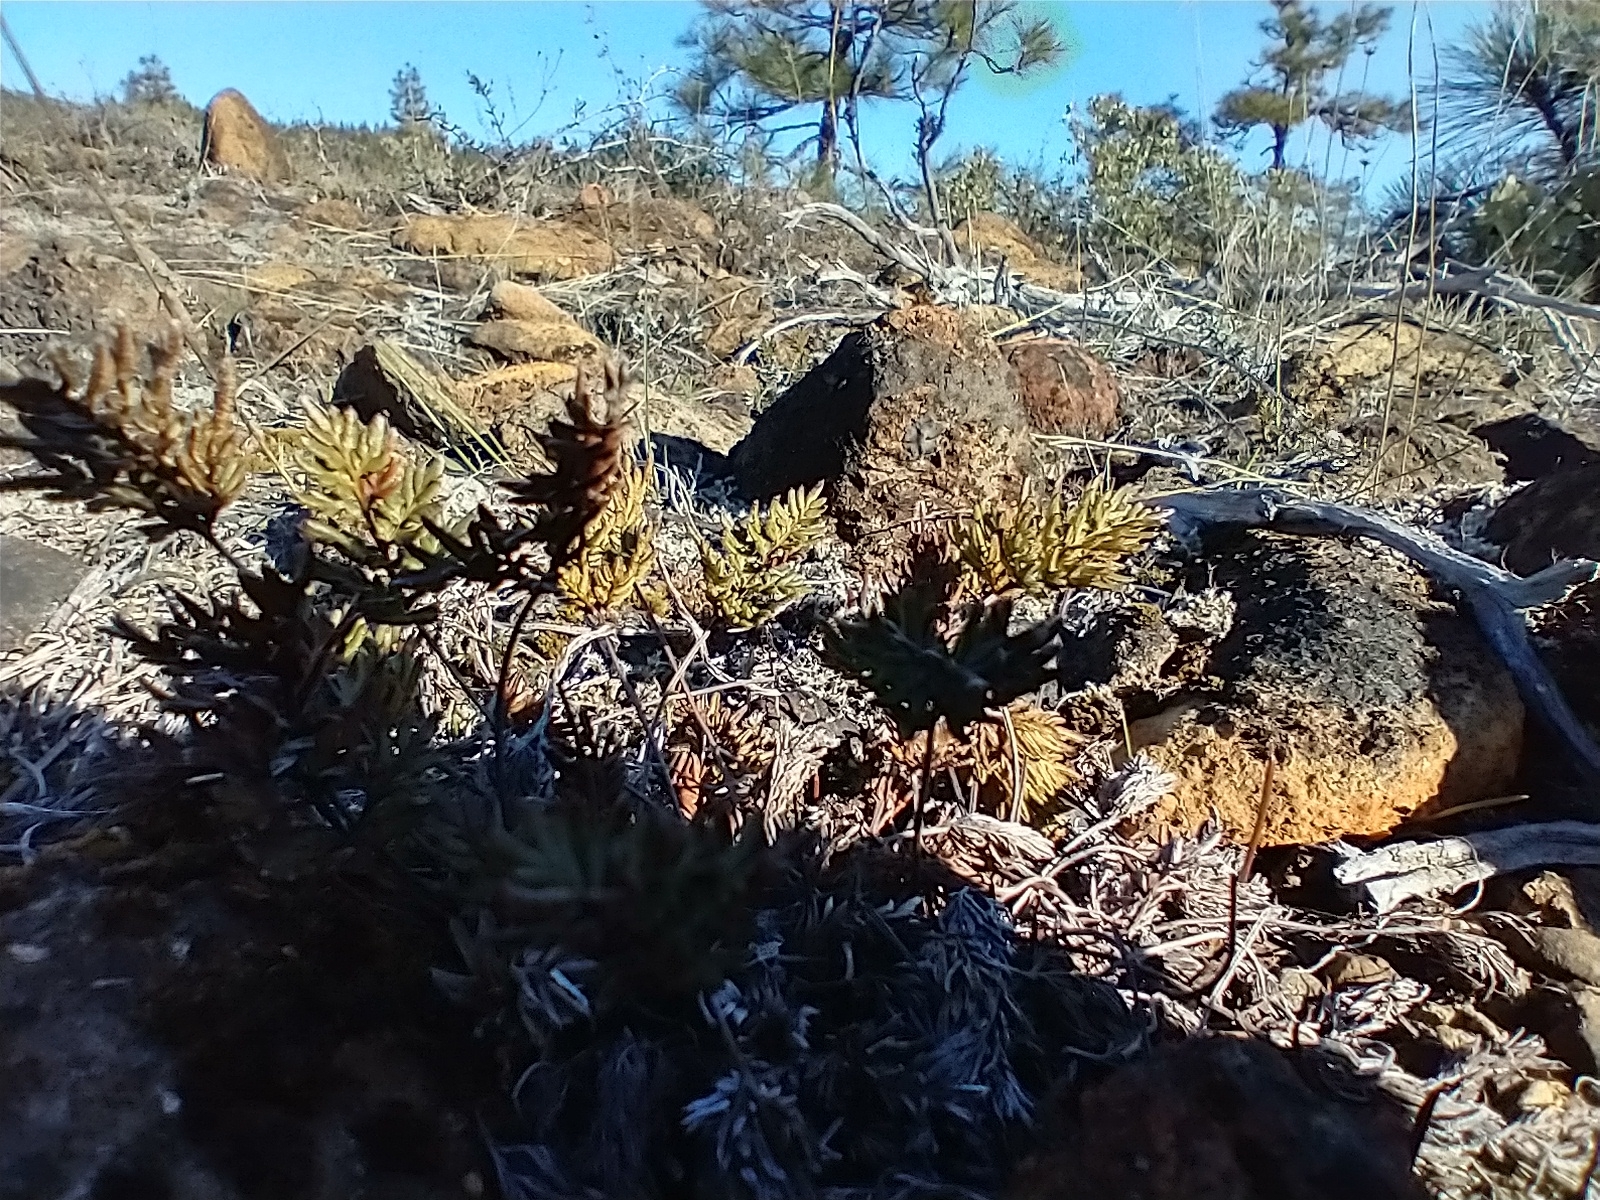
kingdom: Plantae
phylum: Tracheophyta
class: Polypodiopsida
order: Polypodiales
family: Pteridaceae
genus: Aspidotis
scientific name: Aspidotis densa
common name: Indian's dream
